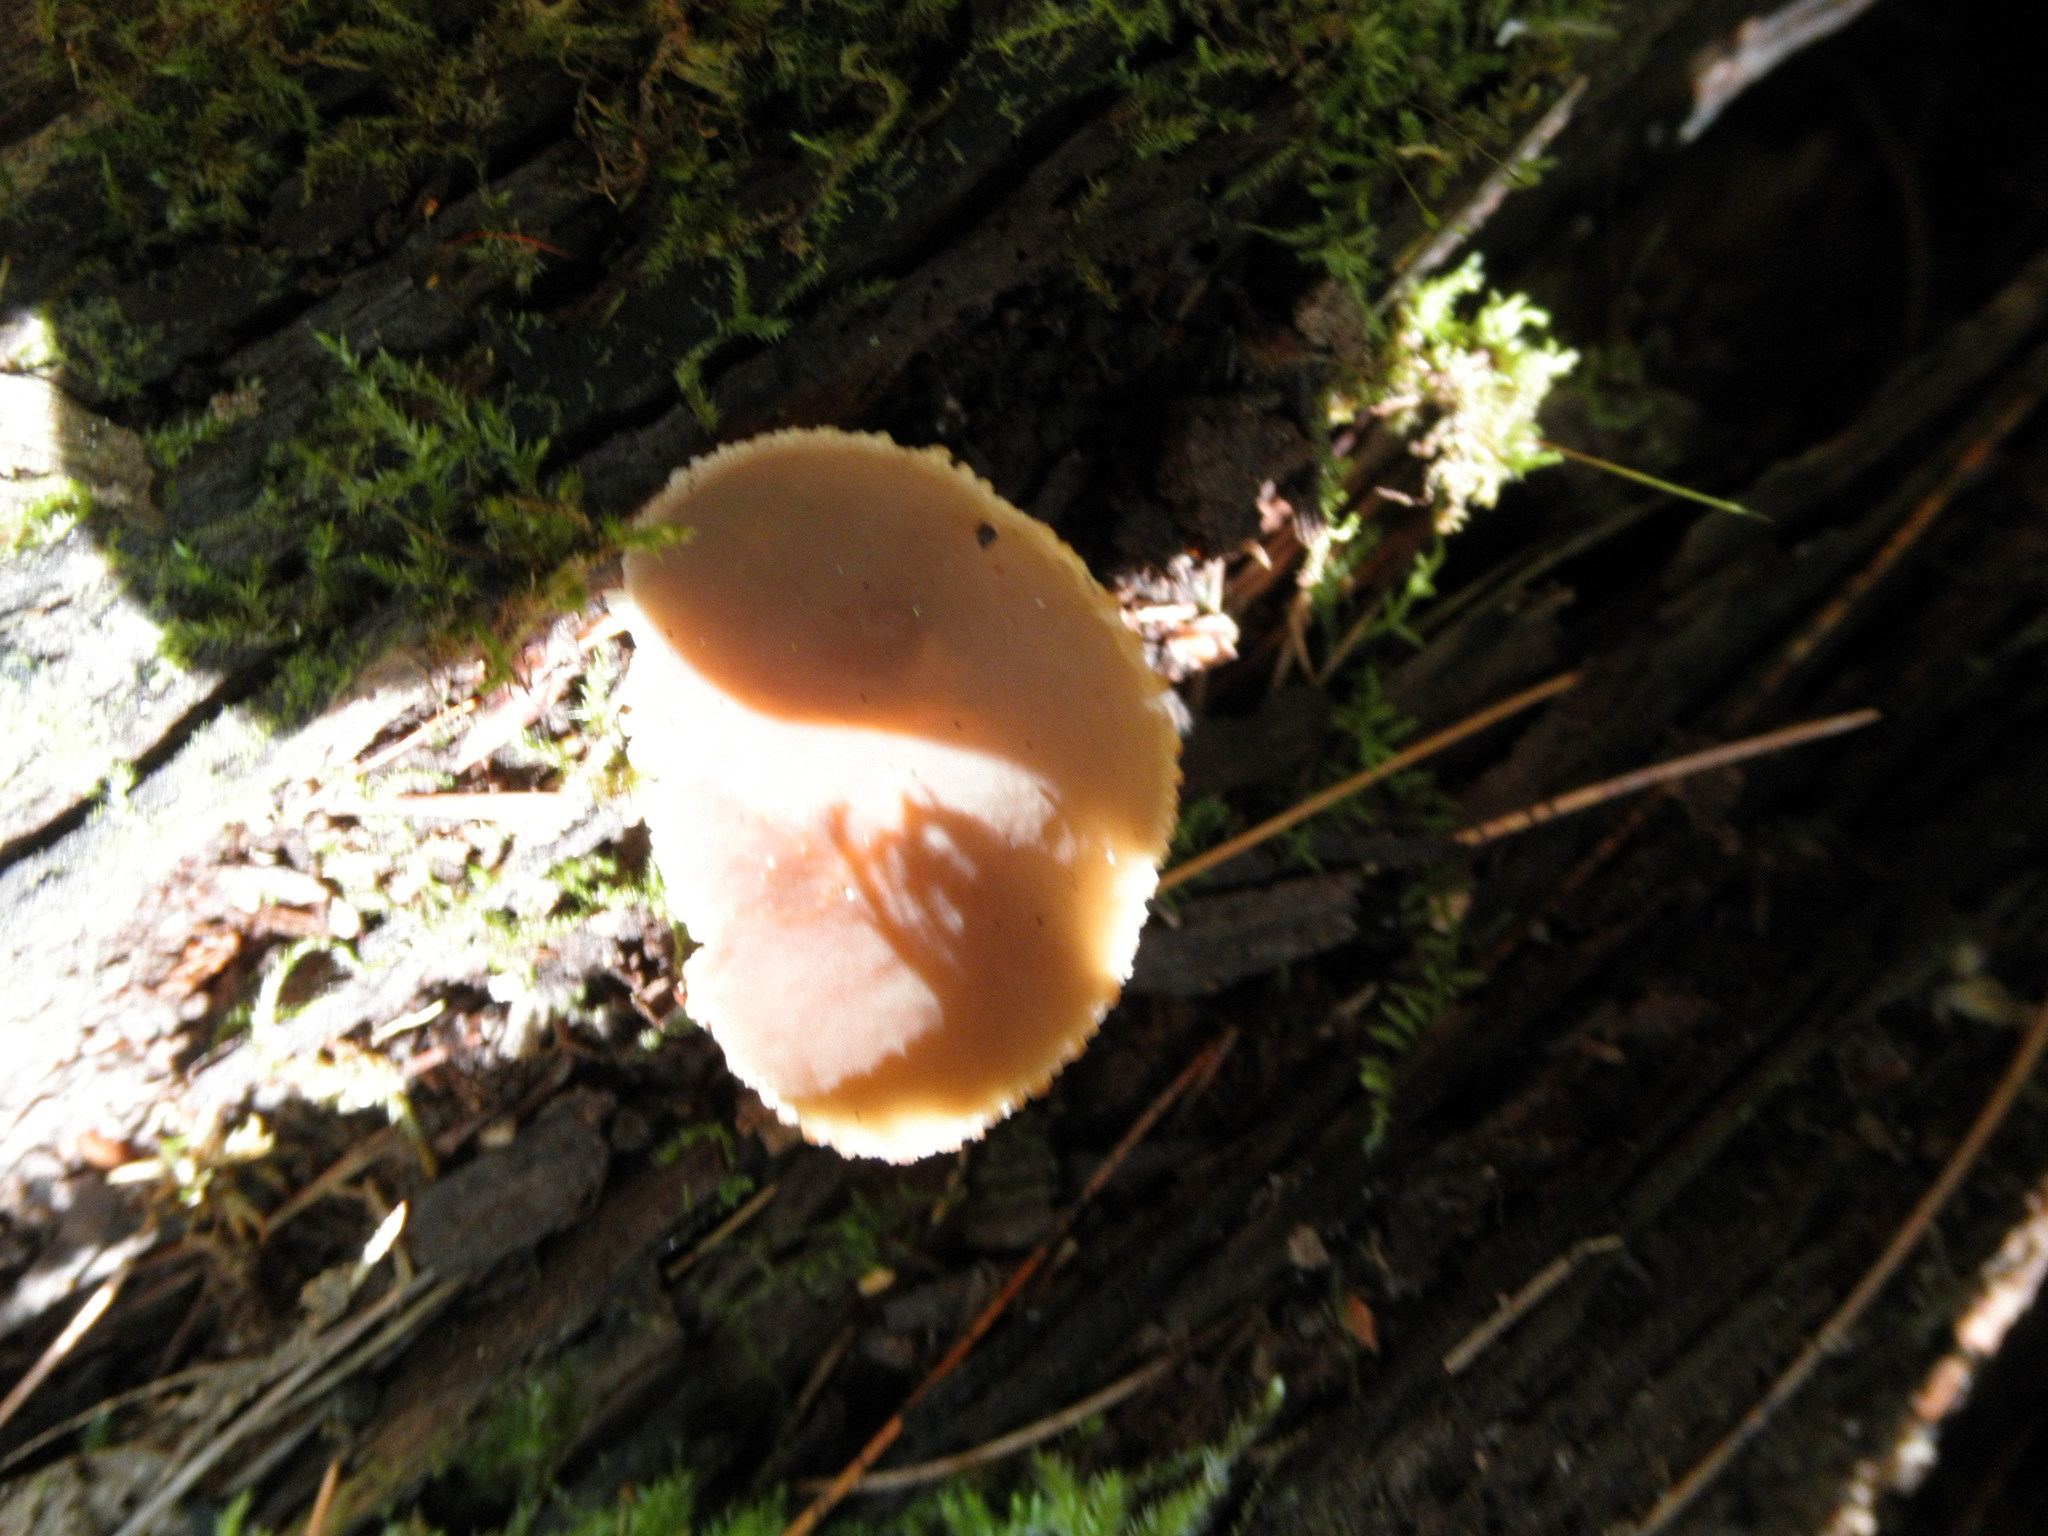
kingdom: Fungi
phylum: Ascomycota
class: Pezizomycetes
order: Pezizales
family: Pezizaceae
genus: Peziza
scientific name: Peziza varia
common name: Layered cup
